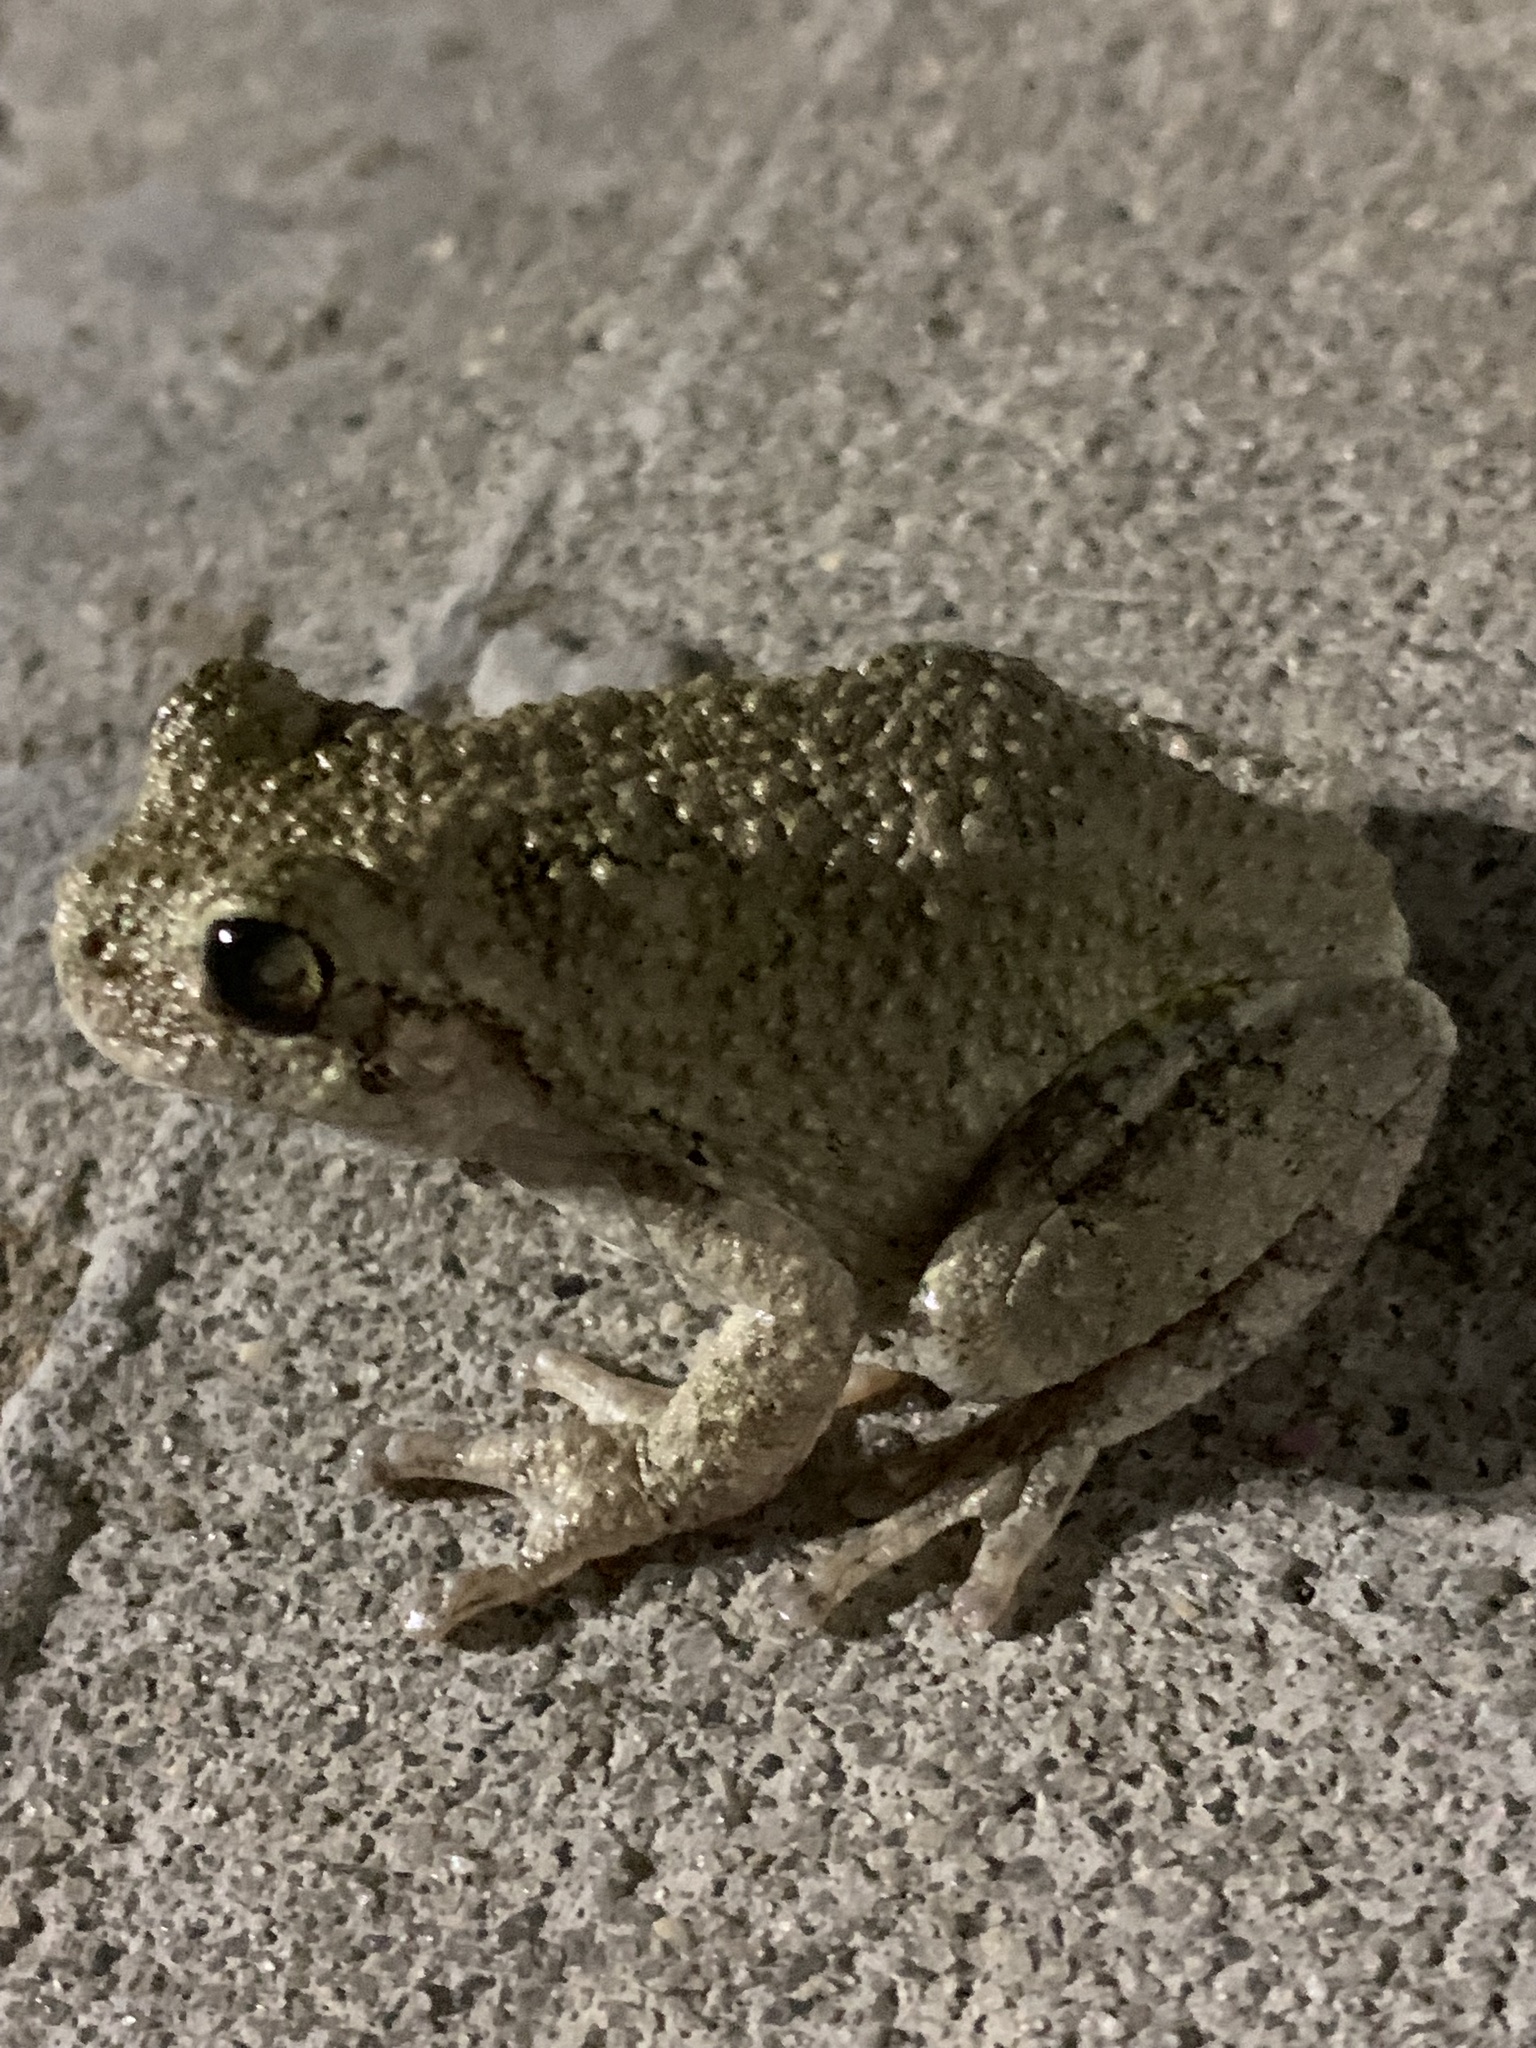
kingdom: Animalia
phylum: Chordata
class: Amphibia
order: Anura
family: Hylidae
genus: Dryophytes
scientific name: Dryophytes chrysoscelis
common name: Cope's gray treefrog
